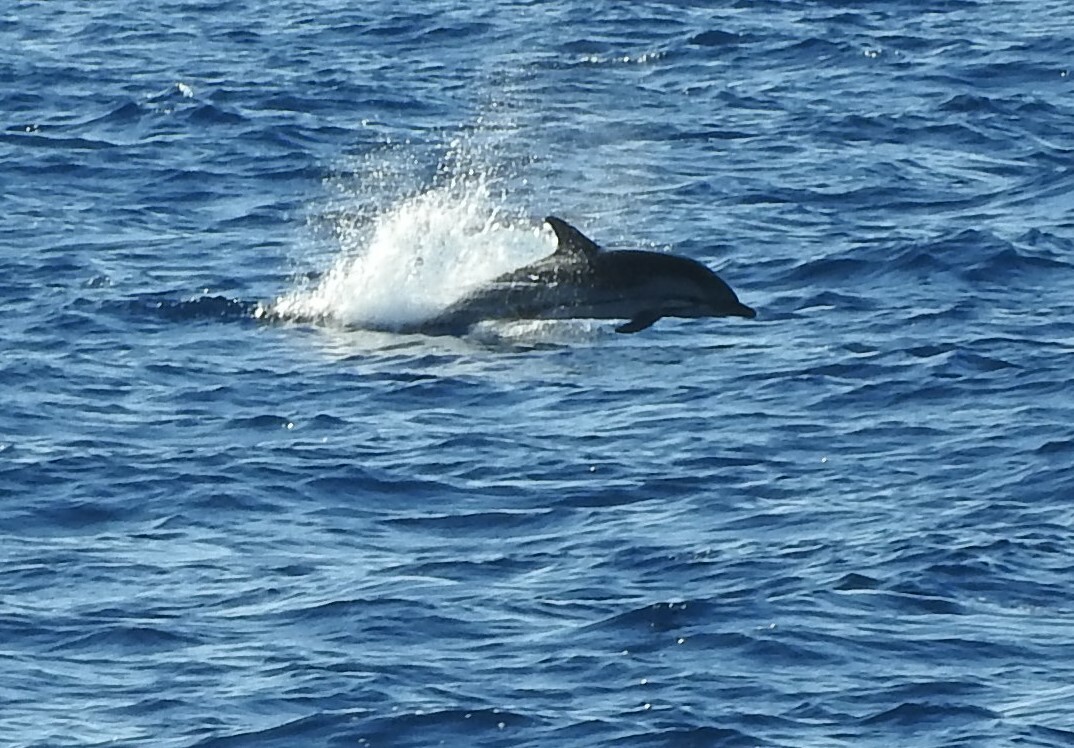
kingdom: Animalia
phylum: Chordata
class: Mammalia
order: Cetacea
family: Delphinidae
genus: Stenella
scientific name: Stenella coeruleoalba
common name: Striped dolphin
